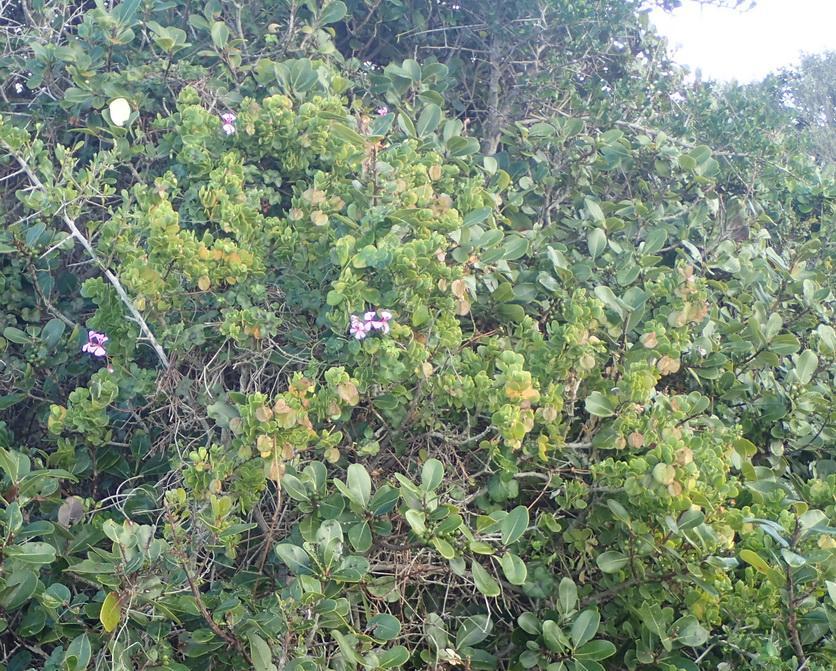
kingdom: Plantae
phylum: Tracheophyta
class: Magnoliopsida
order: Geraniales
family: Geraniaceae
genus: Pelargonium
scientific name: Pelargonium peltatum
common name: Ivyleaf geranium
